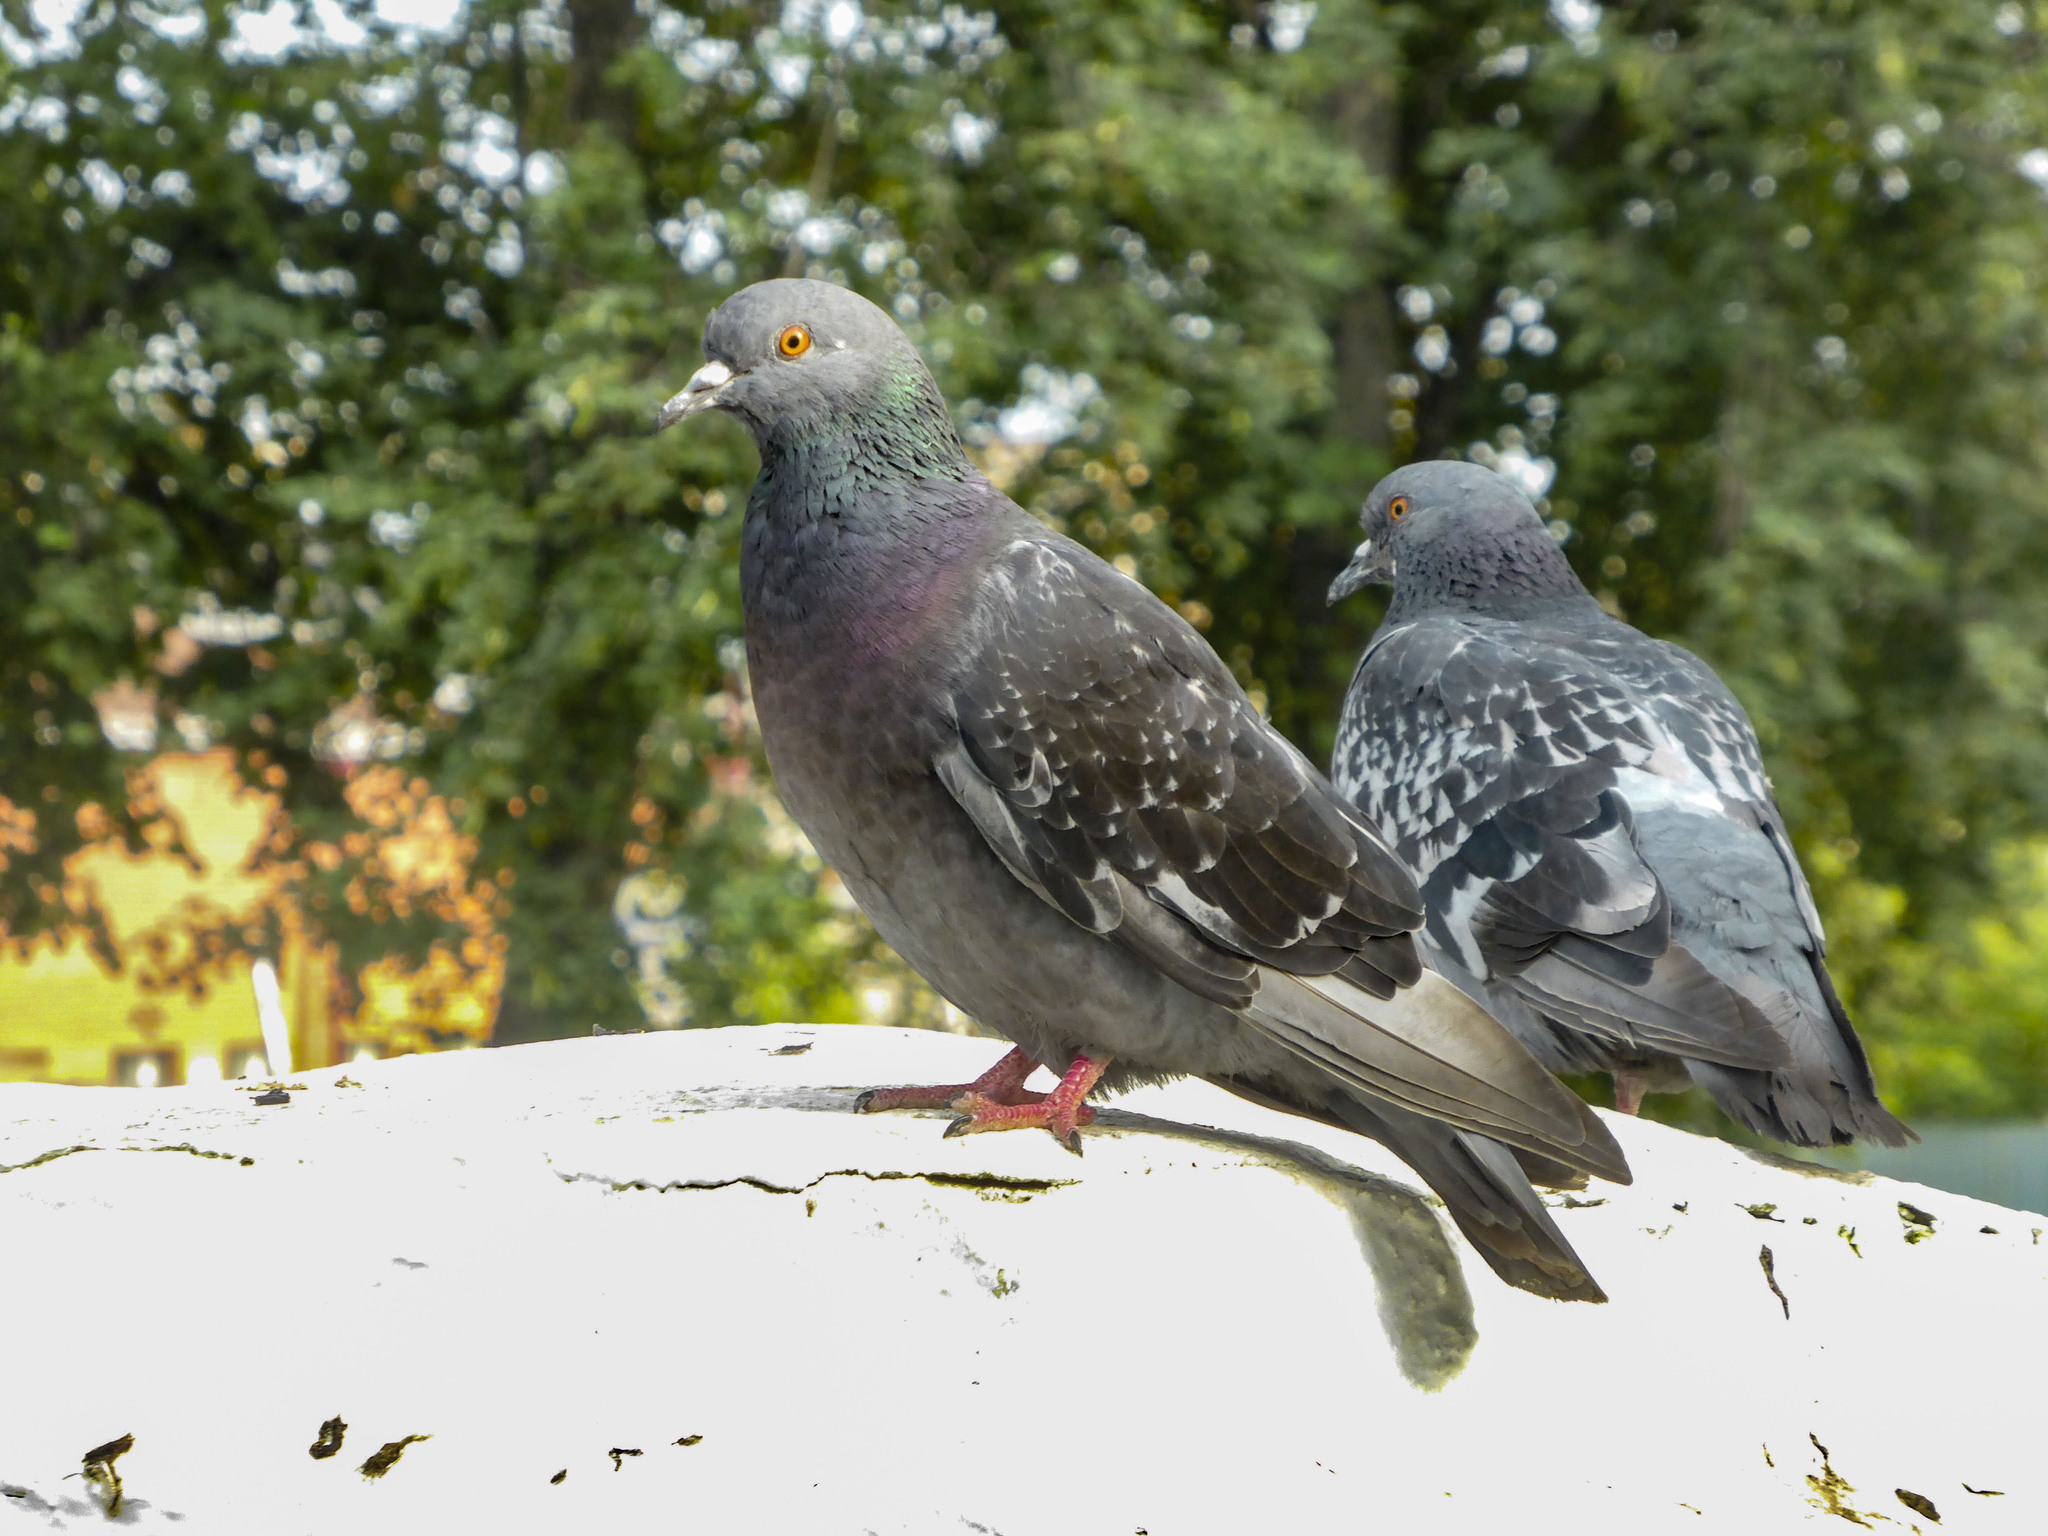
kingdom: Animalia
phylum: Chordata
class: Aves
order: Columbiformes
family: Columbidae
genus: Columba
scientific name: Columba livia
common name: Rock pigeon
